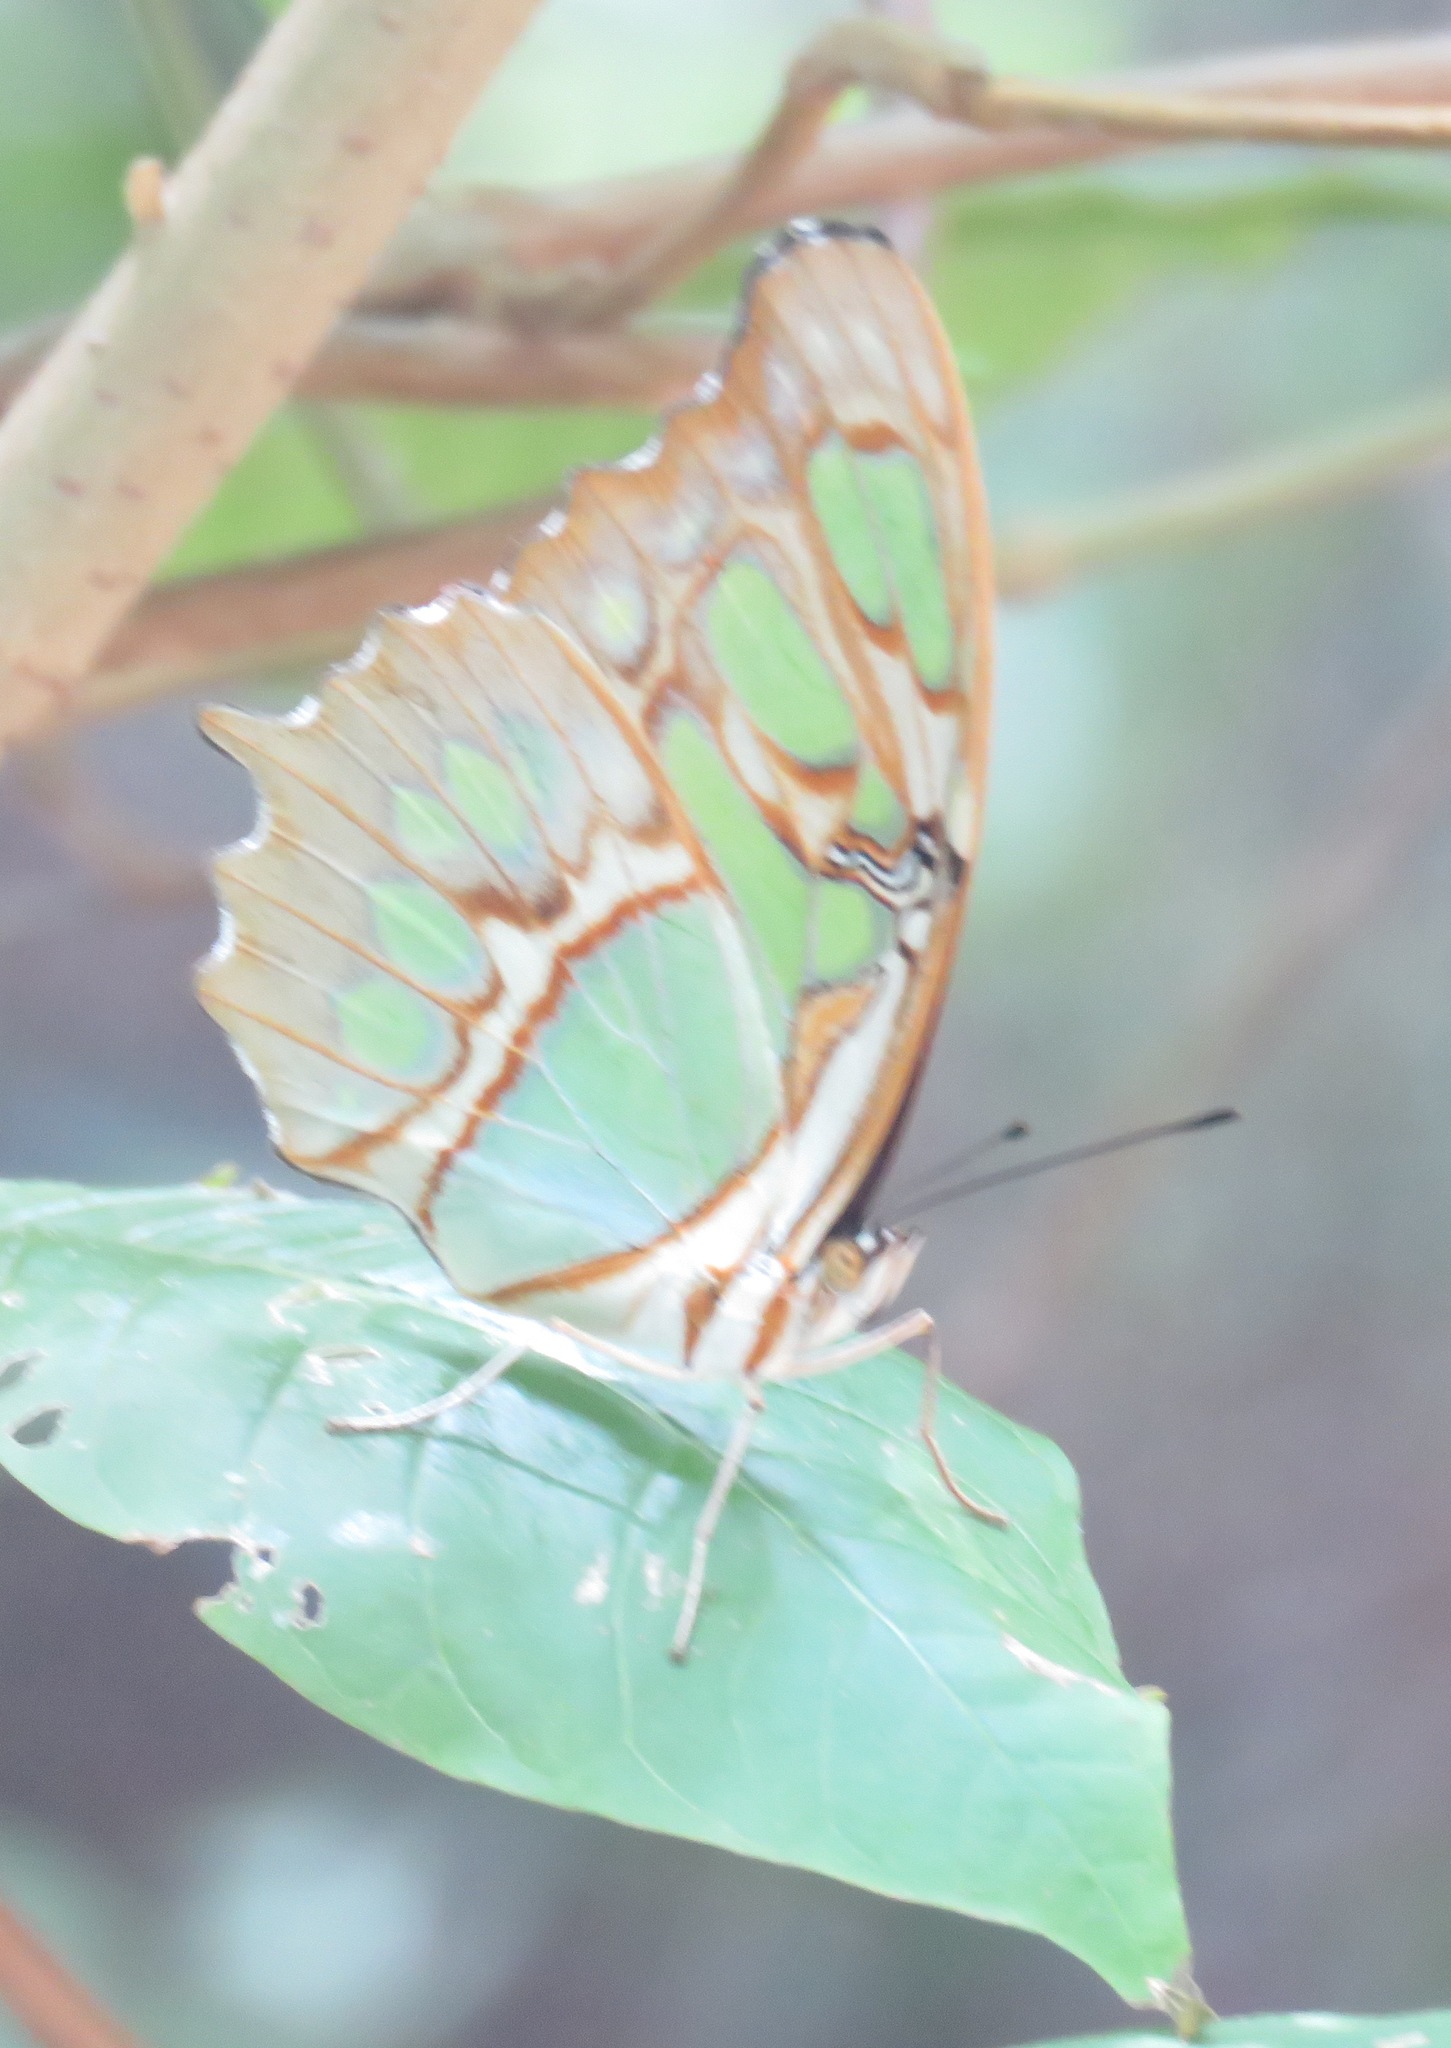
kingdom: Animalia
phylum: Arthropoda
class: Insecta
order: Lepidoptera
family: Nymphalidae
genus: Siproeta
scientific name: Siproeta stelenes
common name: Malachite
